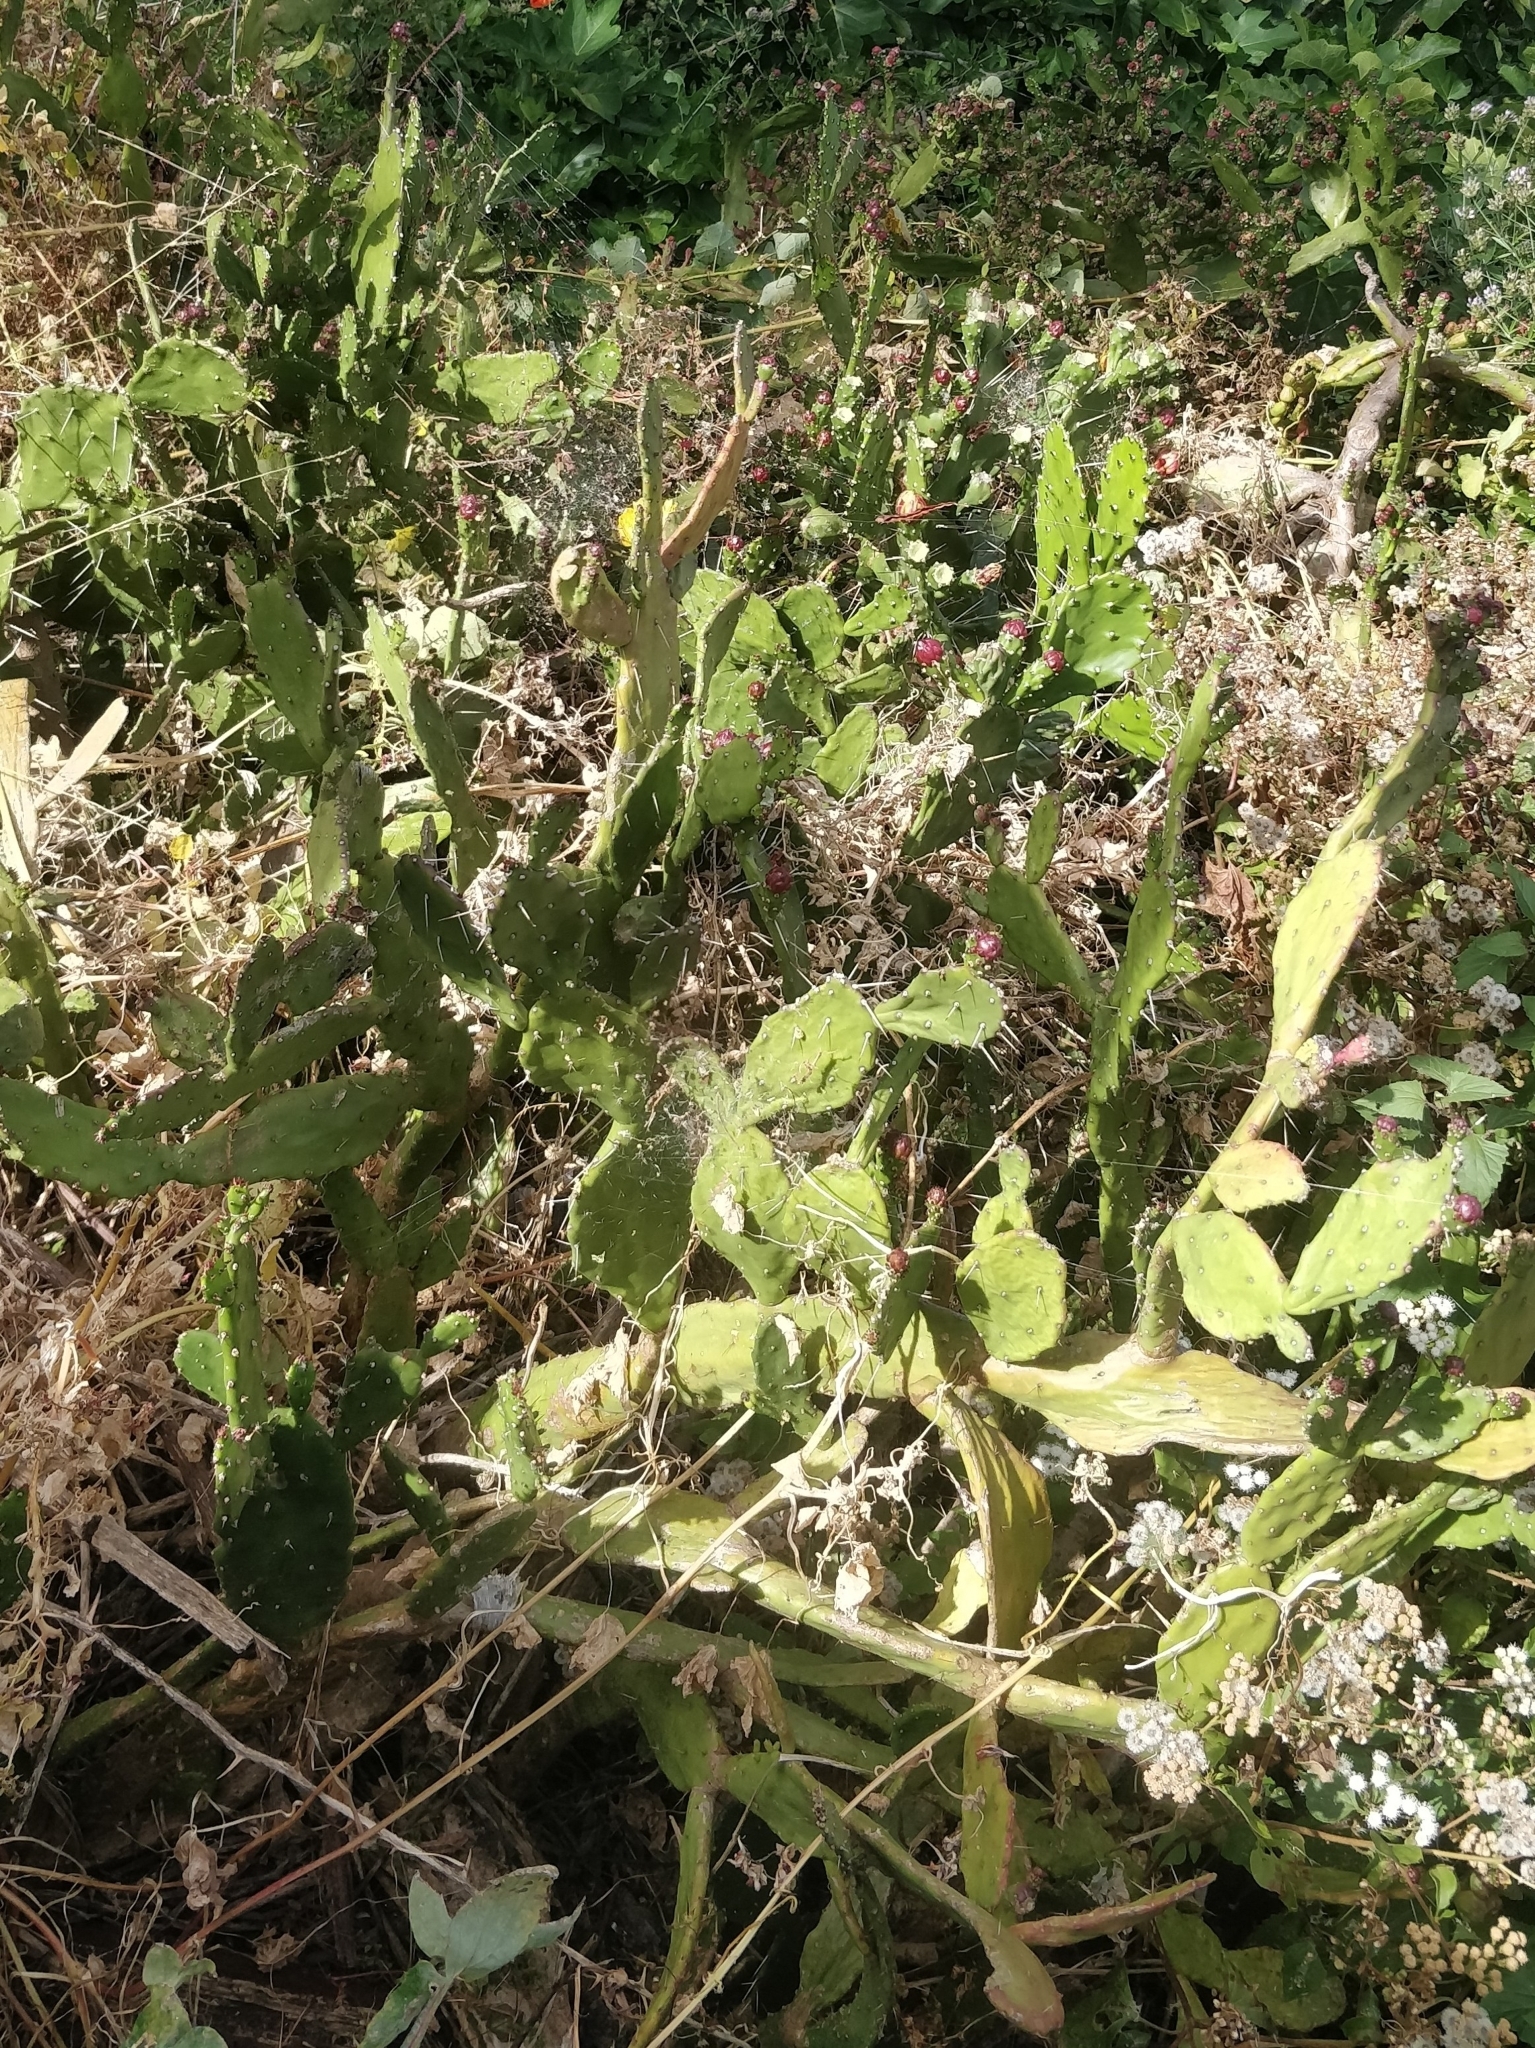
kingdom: Plantae
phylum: Tracheophyta
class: Magnoliopsida
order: Caryophyllales
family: Cactaceae
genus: Opuntia
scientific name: Opuntia monacantha
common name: Common pricklypear
